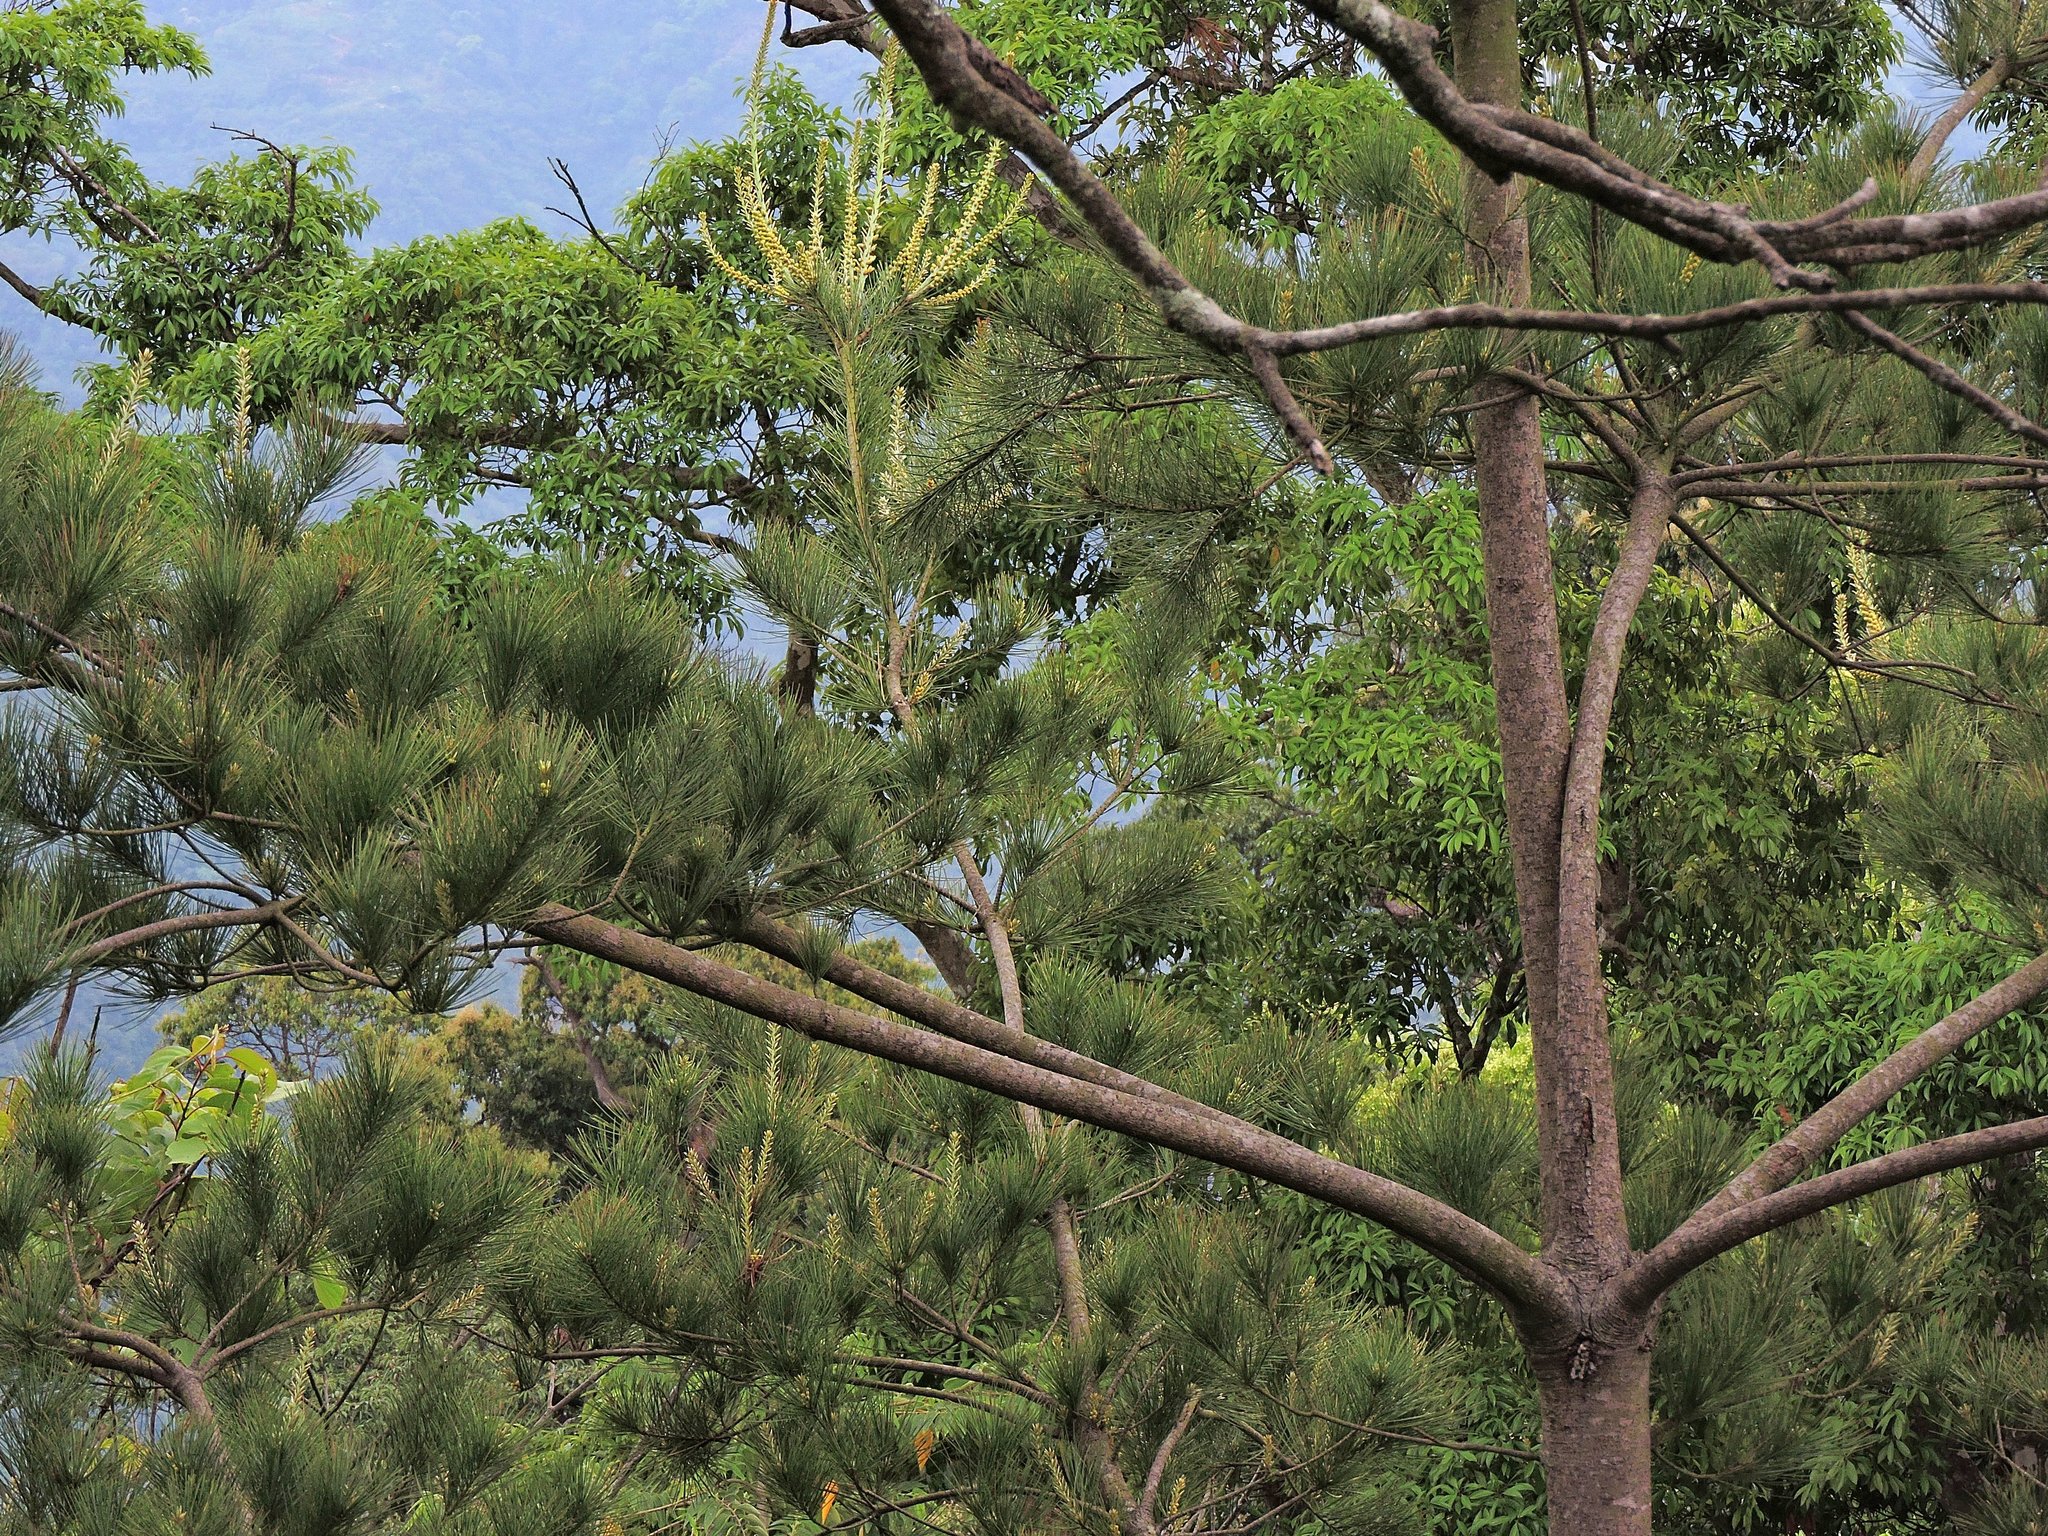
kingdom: Plantae
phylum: Tracheophyta
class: Pinopsida
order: Pinales
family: Pinaceae
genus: Pinus
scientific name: Pinus morrisonicola
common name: Taiwan white pine
